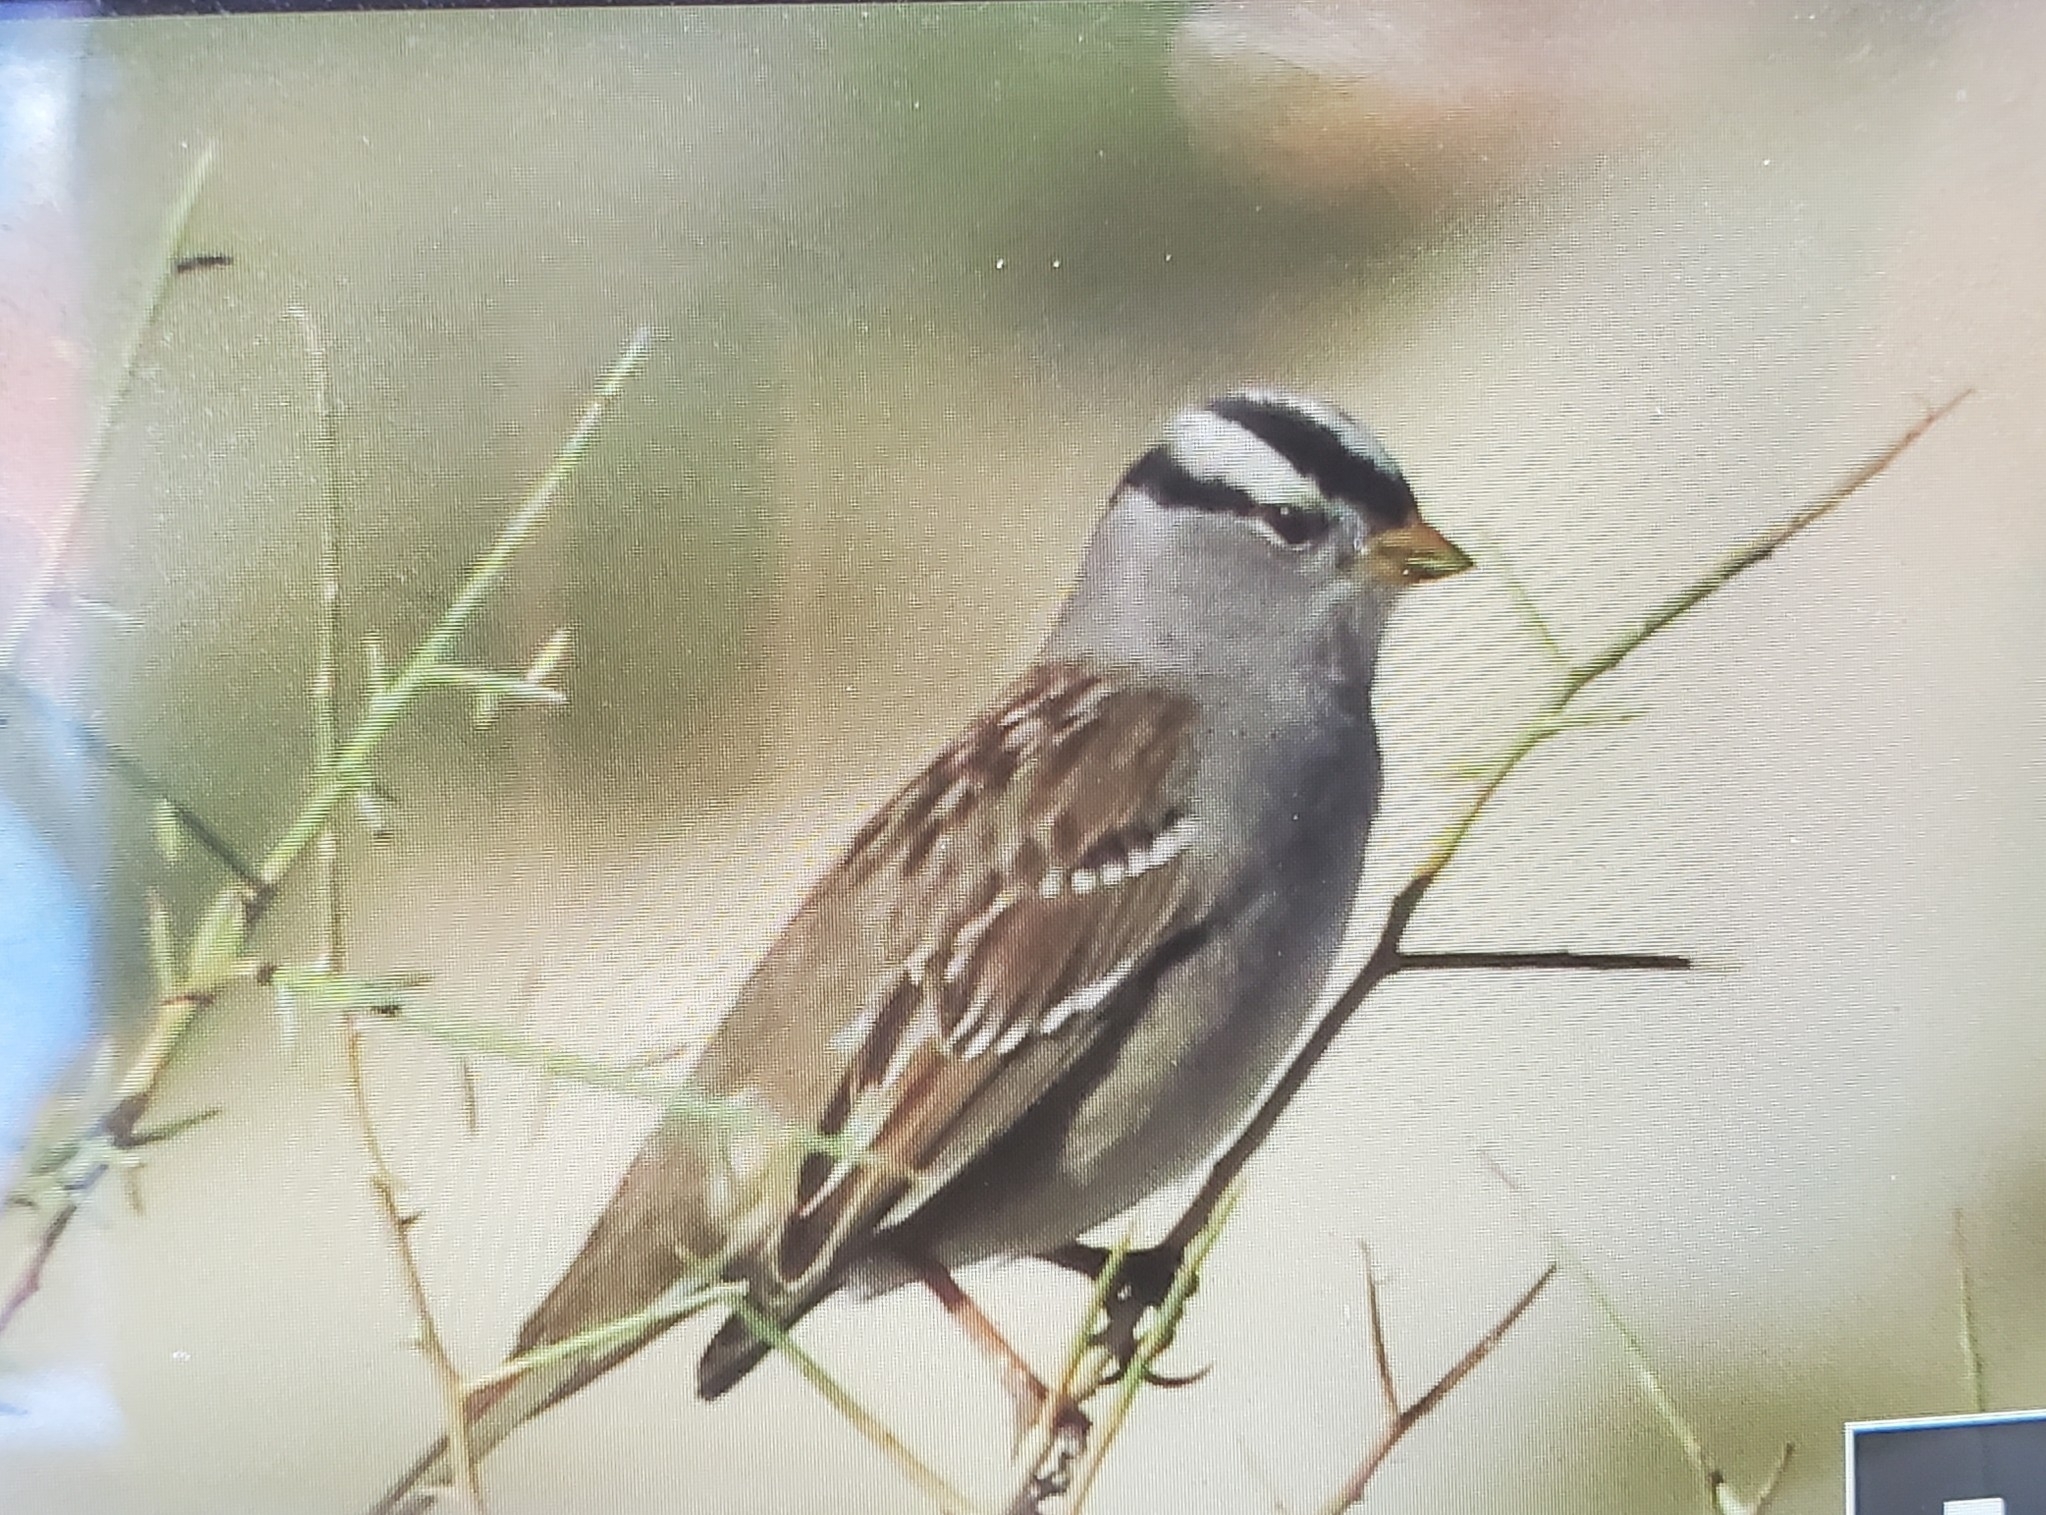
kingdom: Animalia
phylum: Chordata
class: Aves
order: Passeriformes
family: Passerellidae
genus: Zonotrichia
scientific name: Zonotrichia leucophrys
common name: White-crowned sparrow
